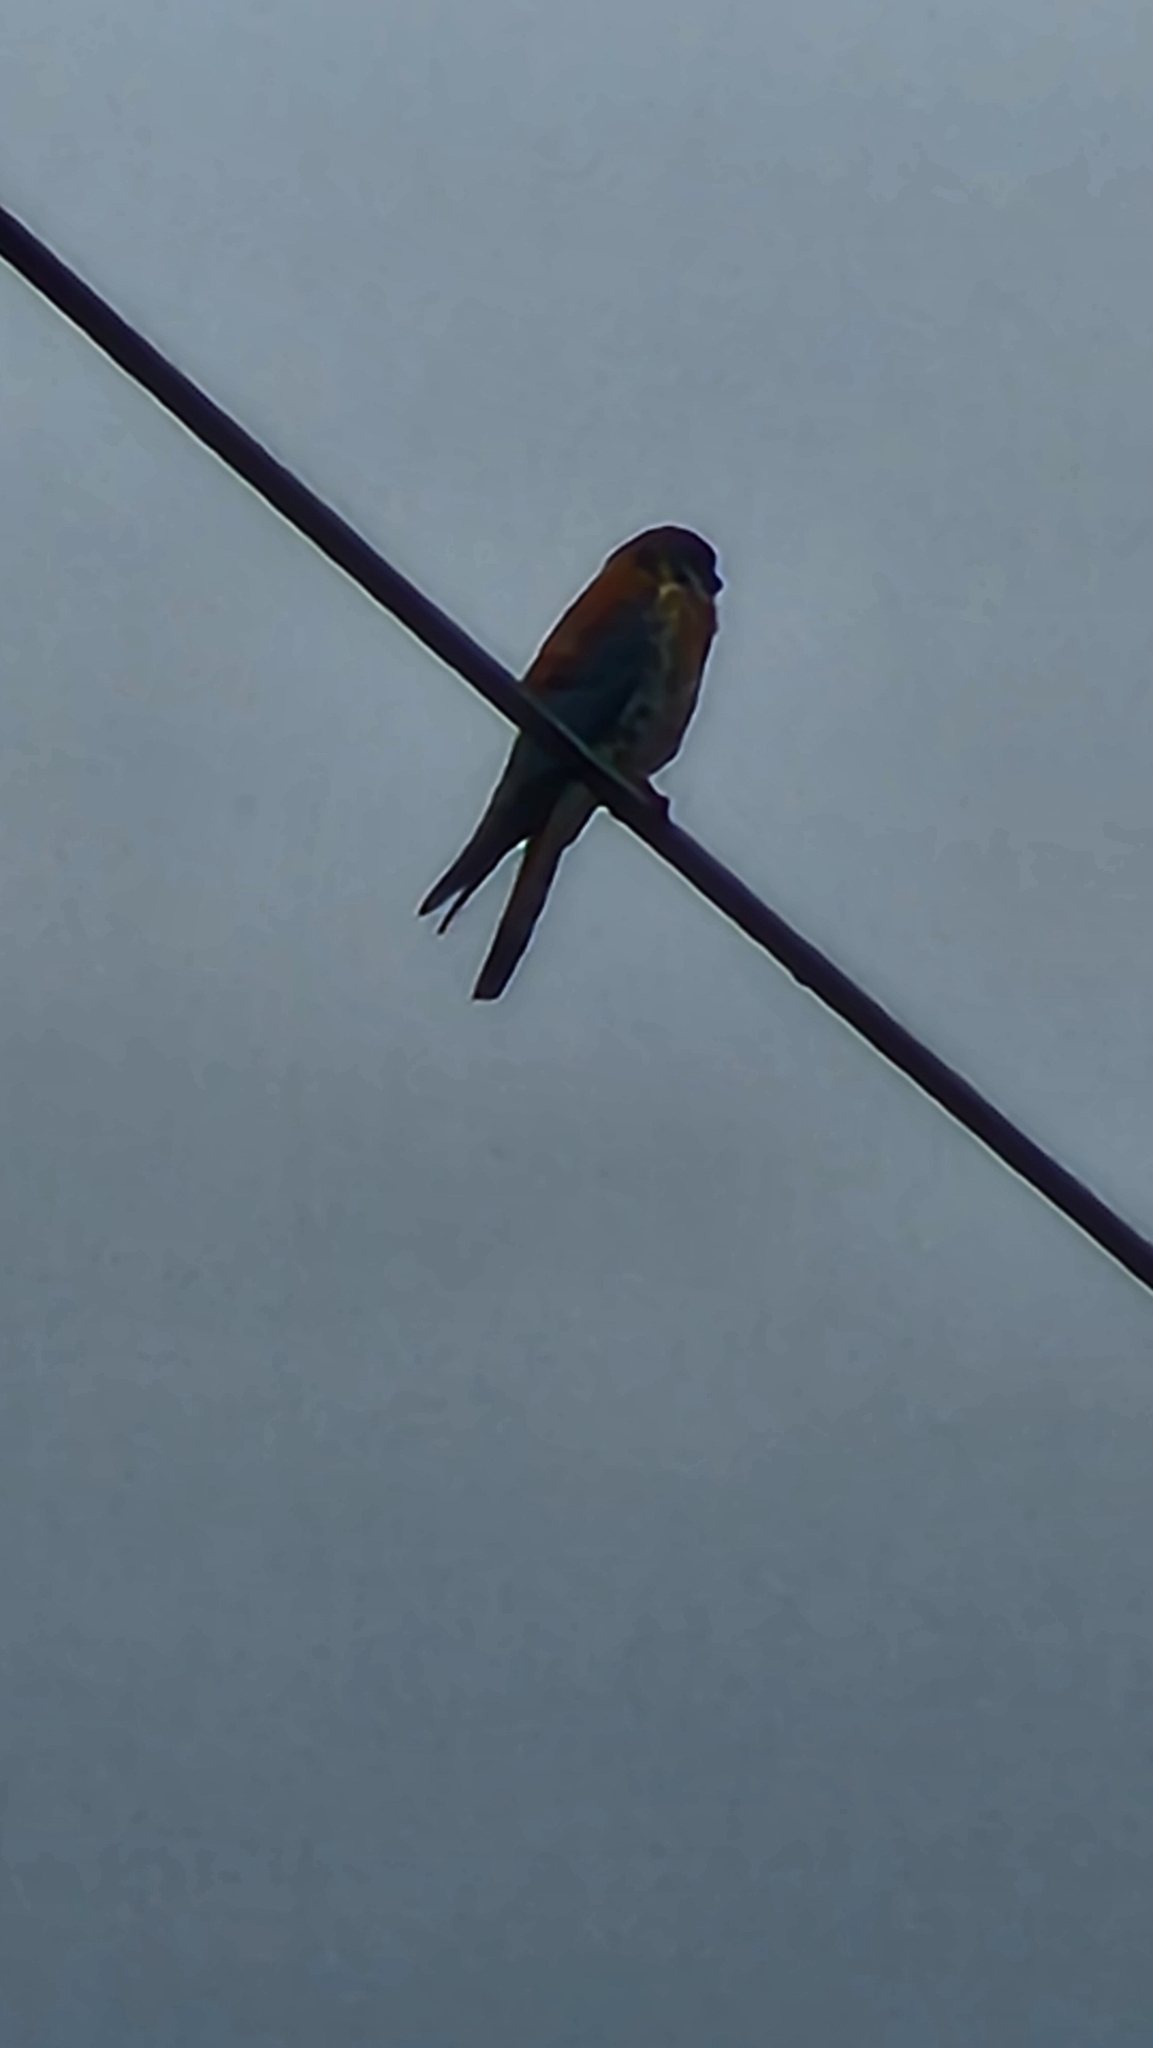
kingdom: Animalia
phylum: Chordata
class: Aves
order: Falconiformes
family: Falconidae
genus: Falco
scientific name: Falco sparverius
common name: American kestrel
